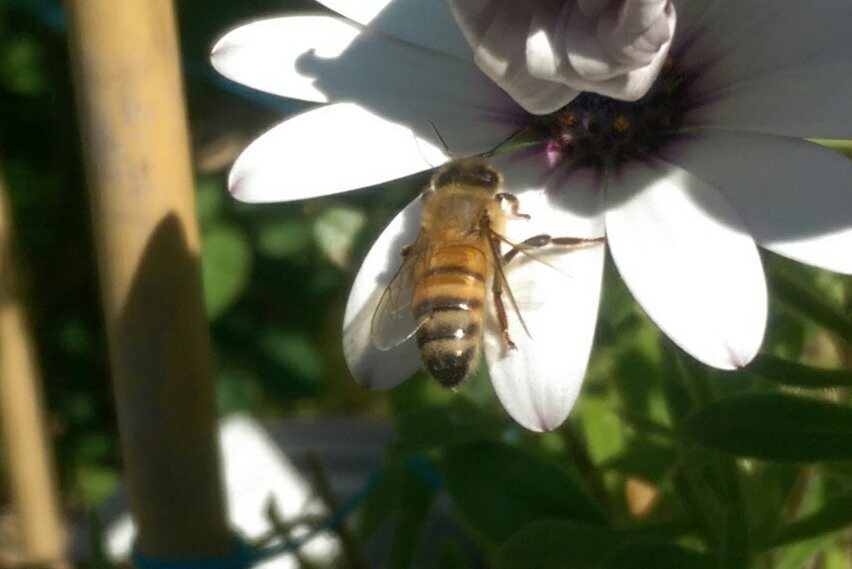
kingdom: Animalia
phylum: Arthropoda
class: Insecta
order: Hymenoptera
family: Apidae
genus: Apis
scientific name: Apis mellifera
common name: Honey bee
